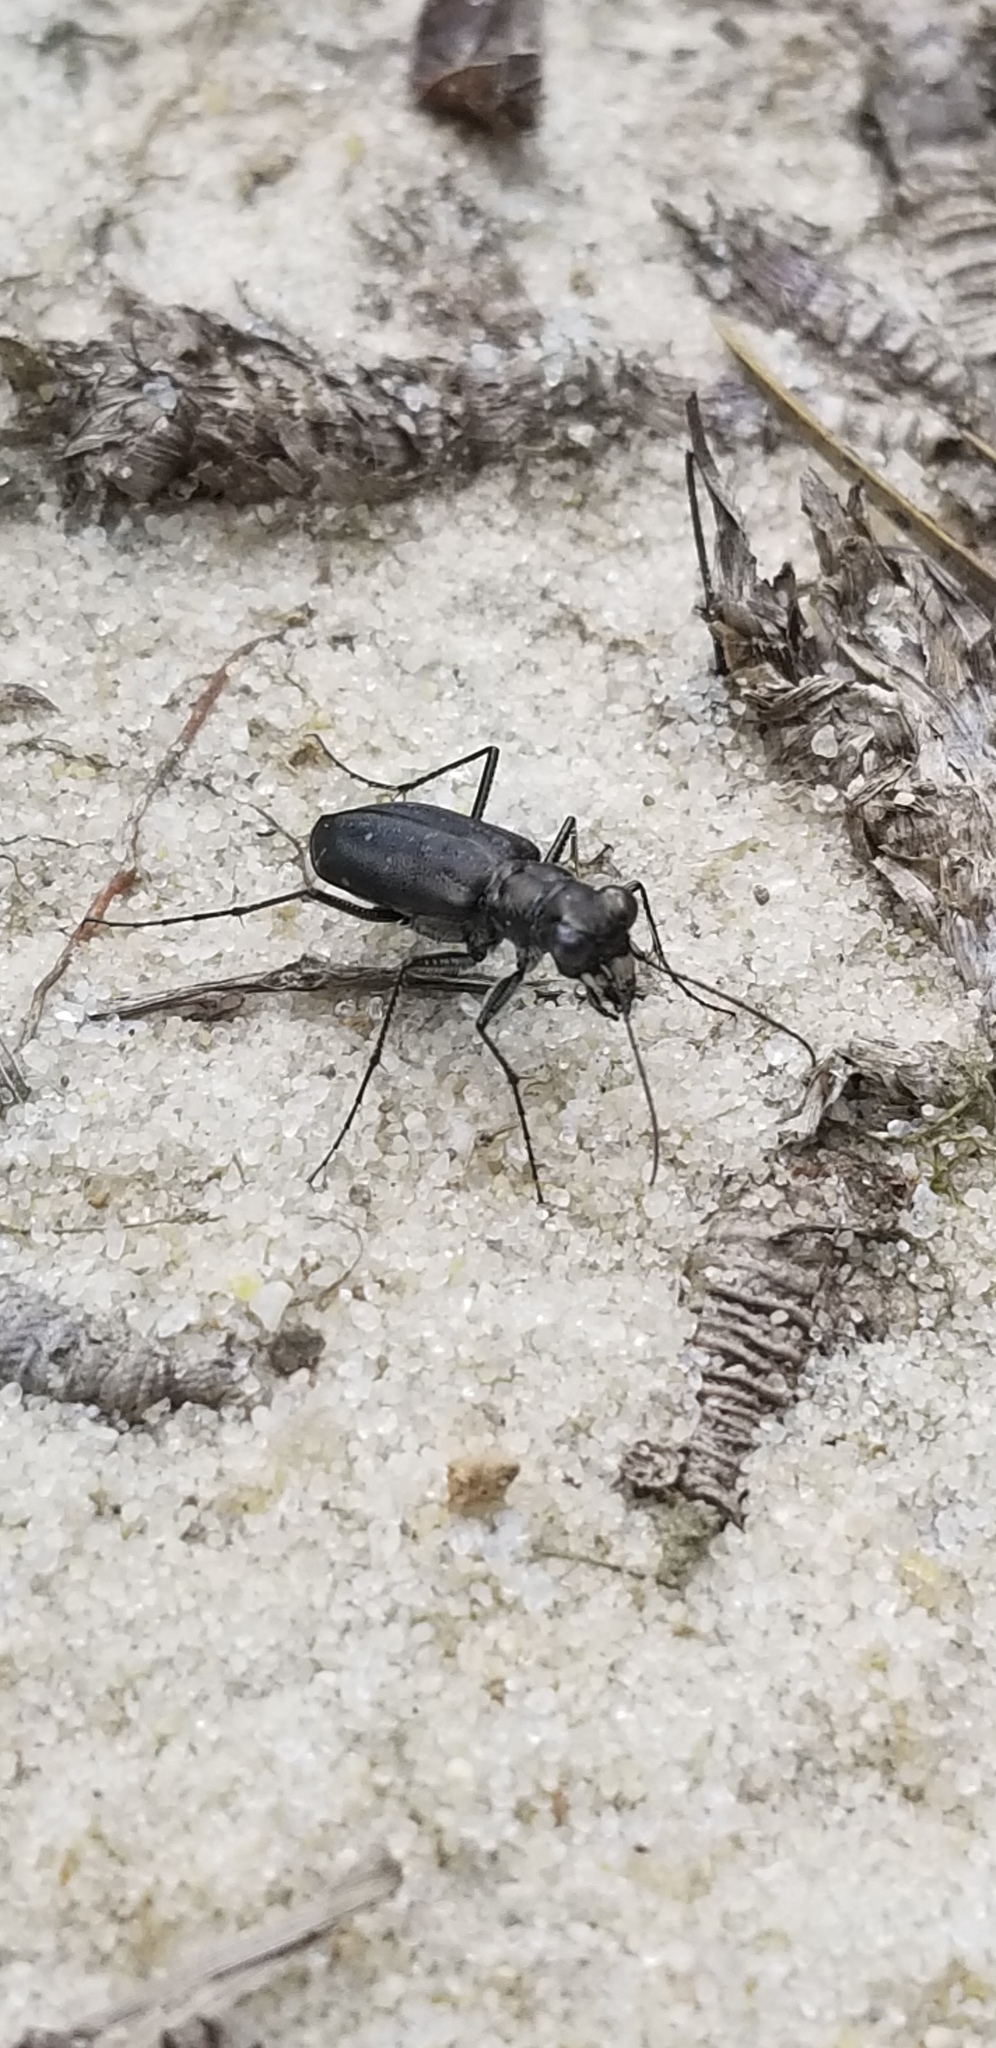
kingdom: Animalia
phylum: Arthropoda
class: Insecta
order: Coleoptera
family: Carabidae
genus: Cicindela
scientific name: Cicindela punctulata
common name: Punctured tiger beetle
